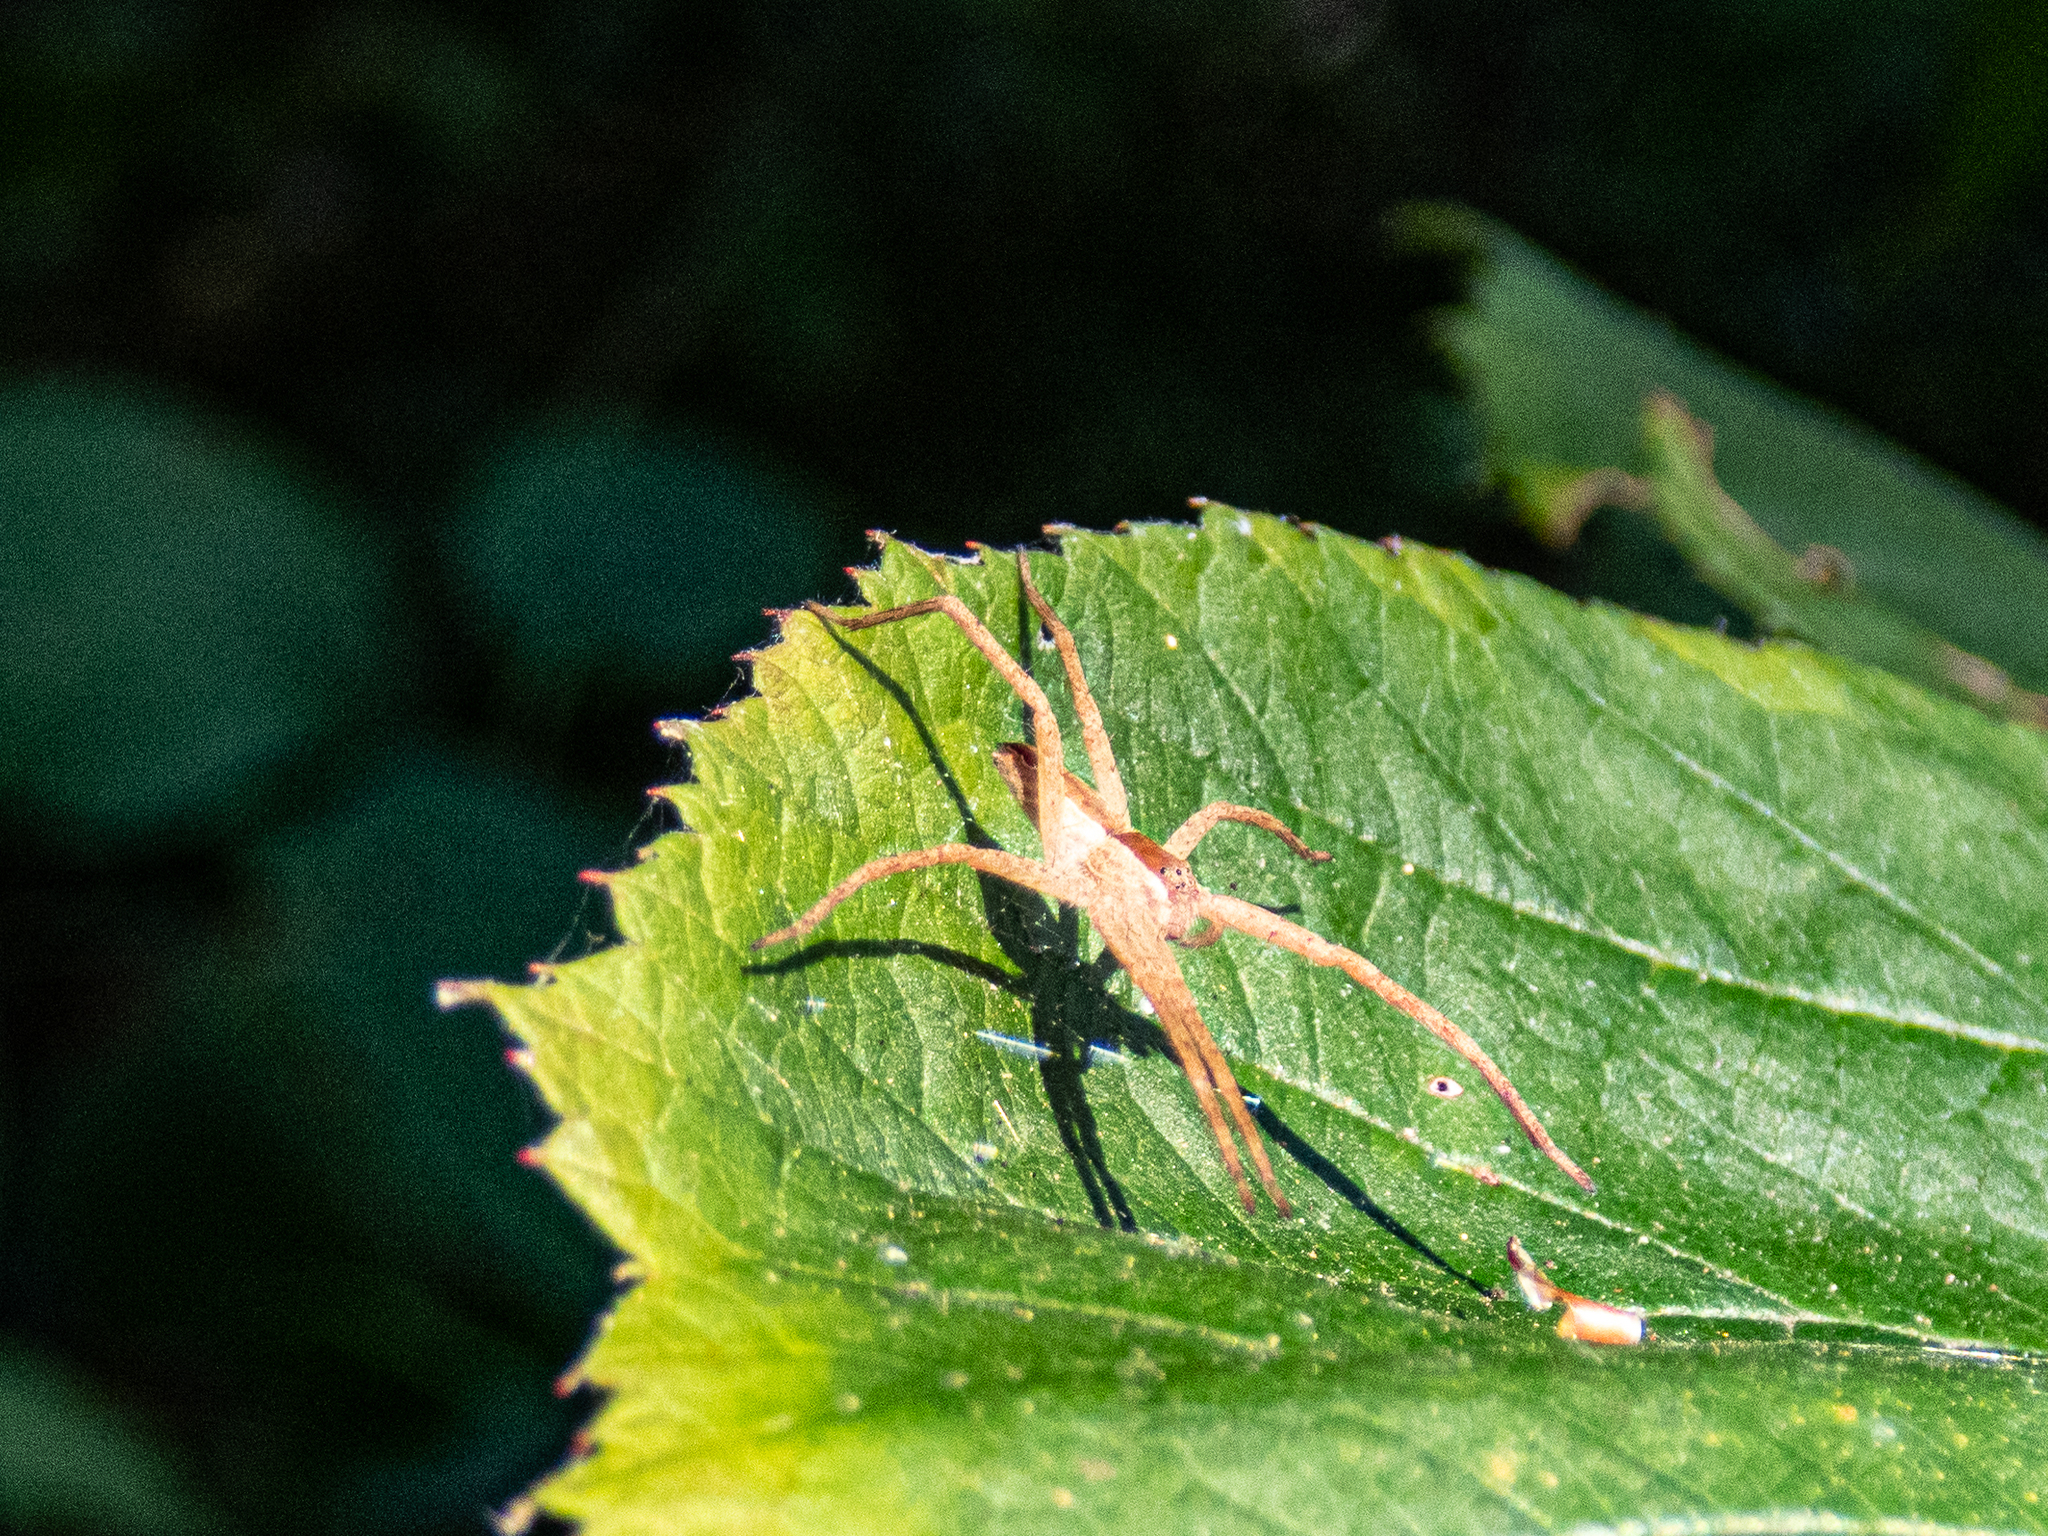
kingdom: Animalia
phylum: Arthropoda
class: Arachnida
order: Araneae
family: Pisauridae
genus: Pisaurina
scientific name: Pisaurina mira
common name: American nursery web spider
